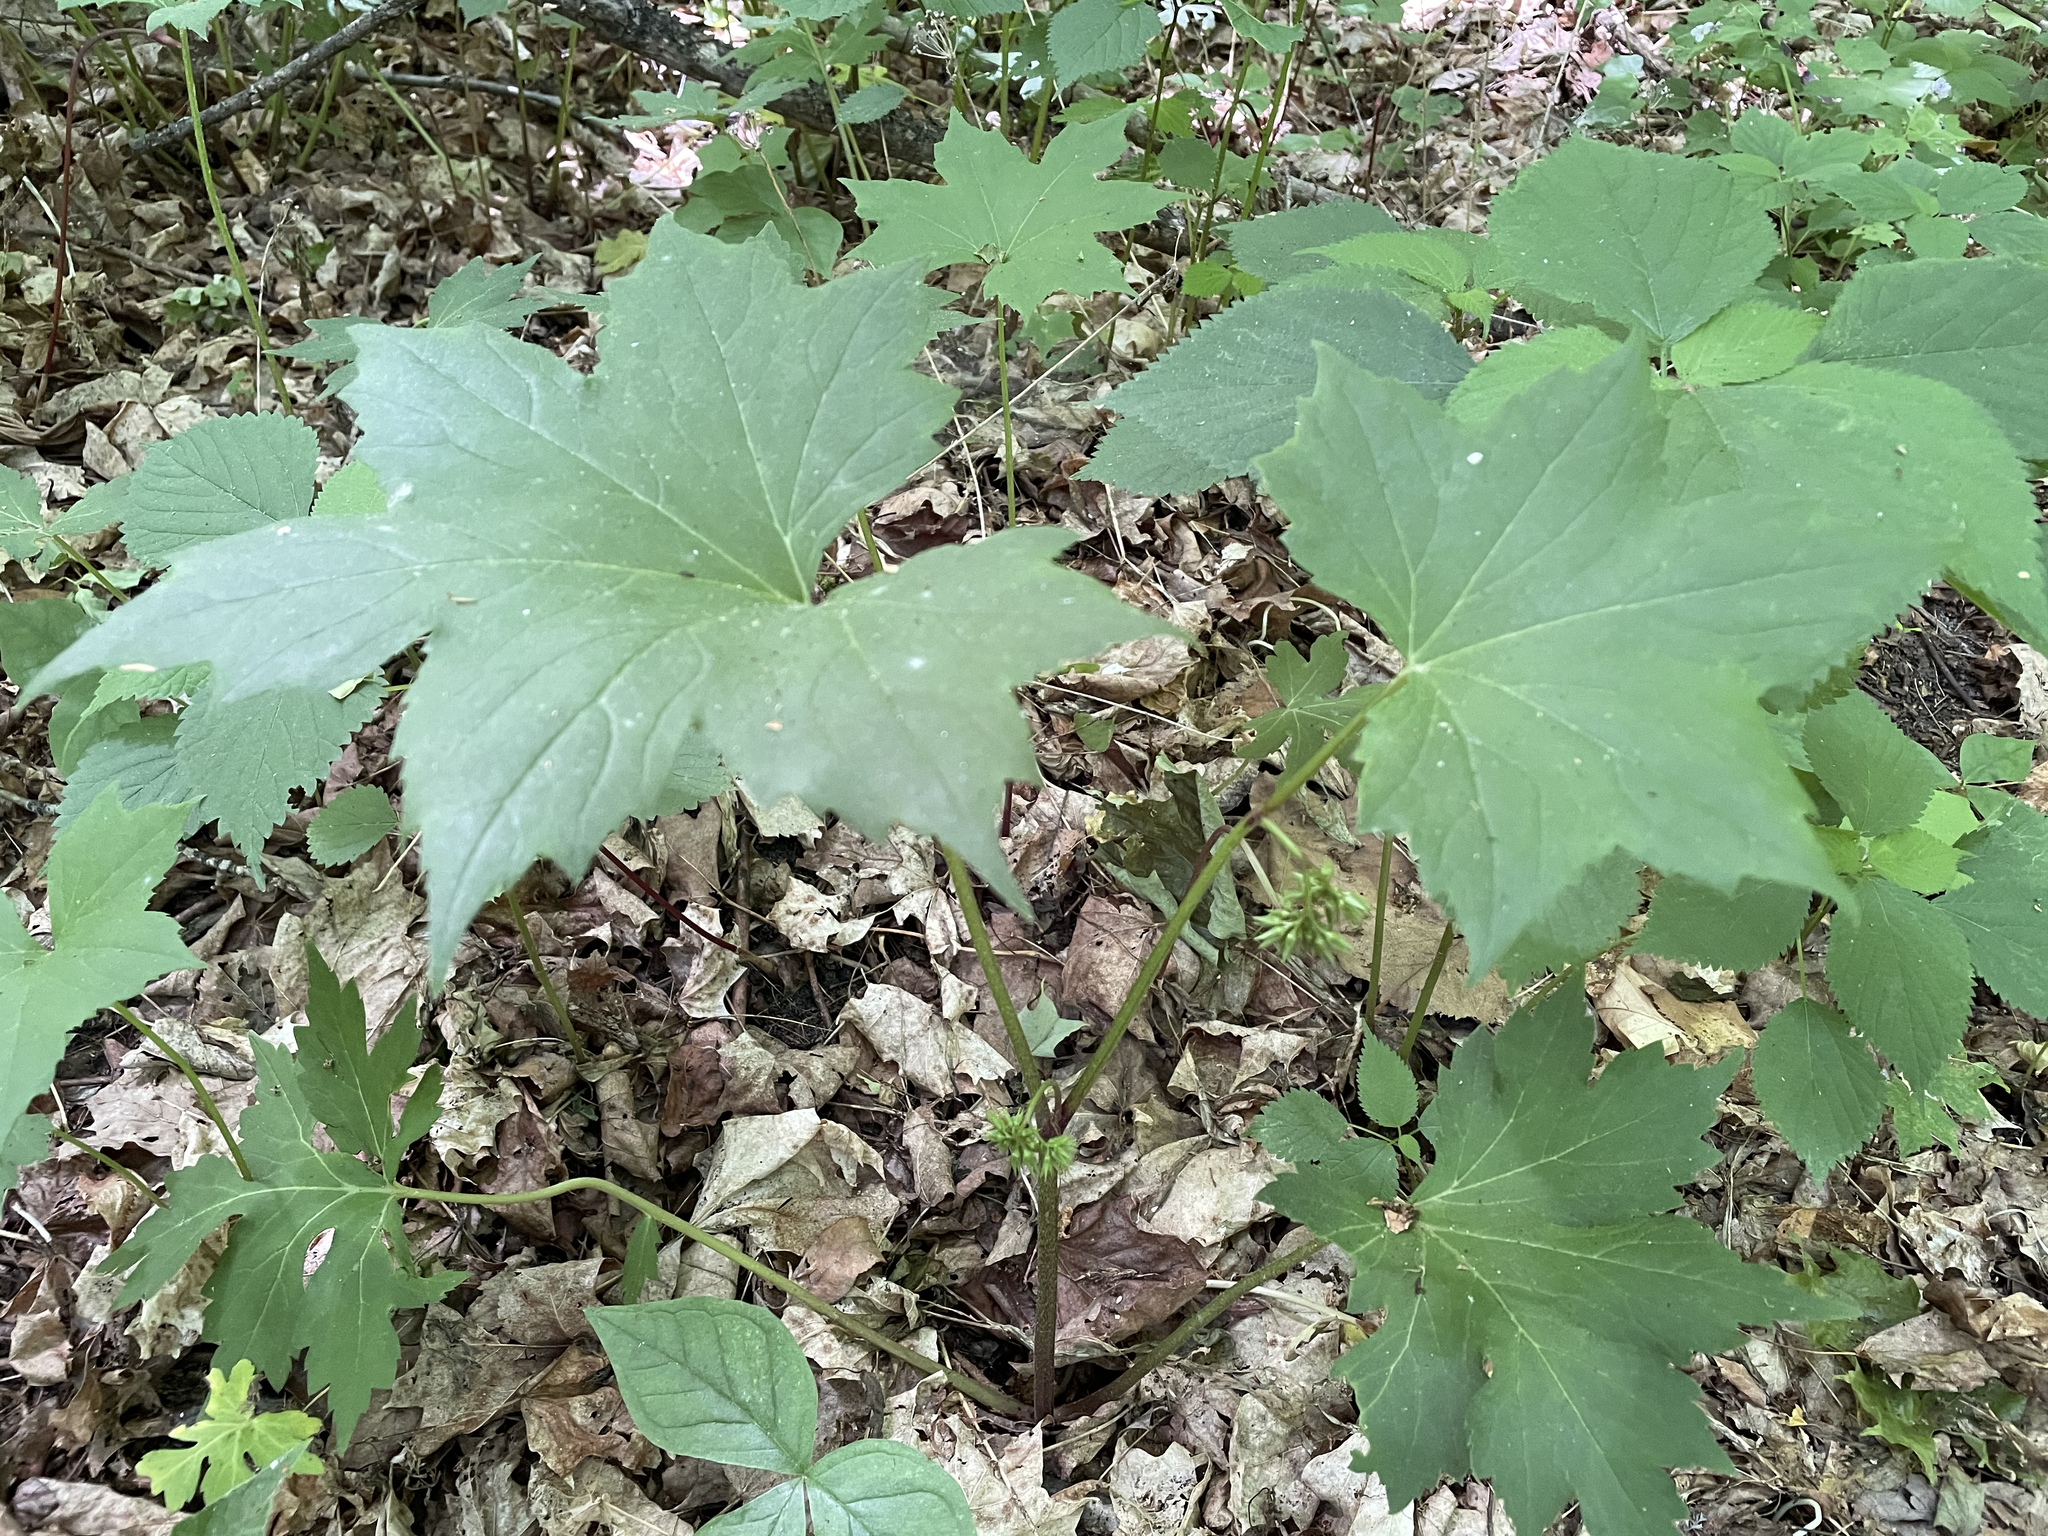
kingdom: Plantae
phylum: Tracheophyta
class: Magnoliopsida
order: Boraginales
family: Hydrophyllaceae
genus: Hydrophyllum
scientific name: Hydrophyllum canadense
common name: Canada waterleaf
